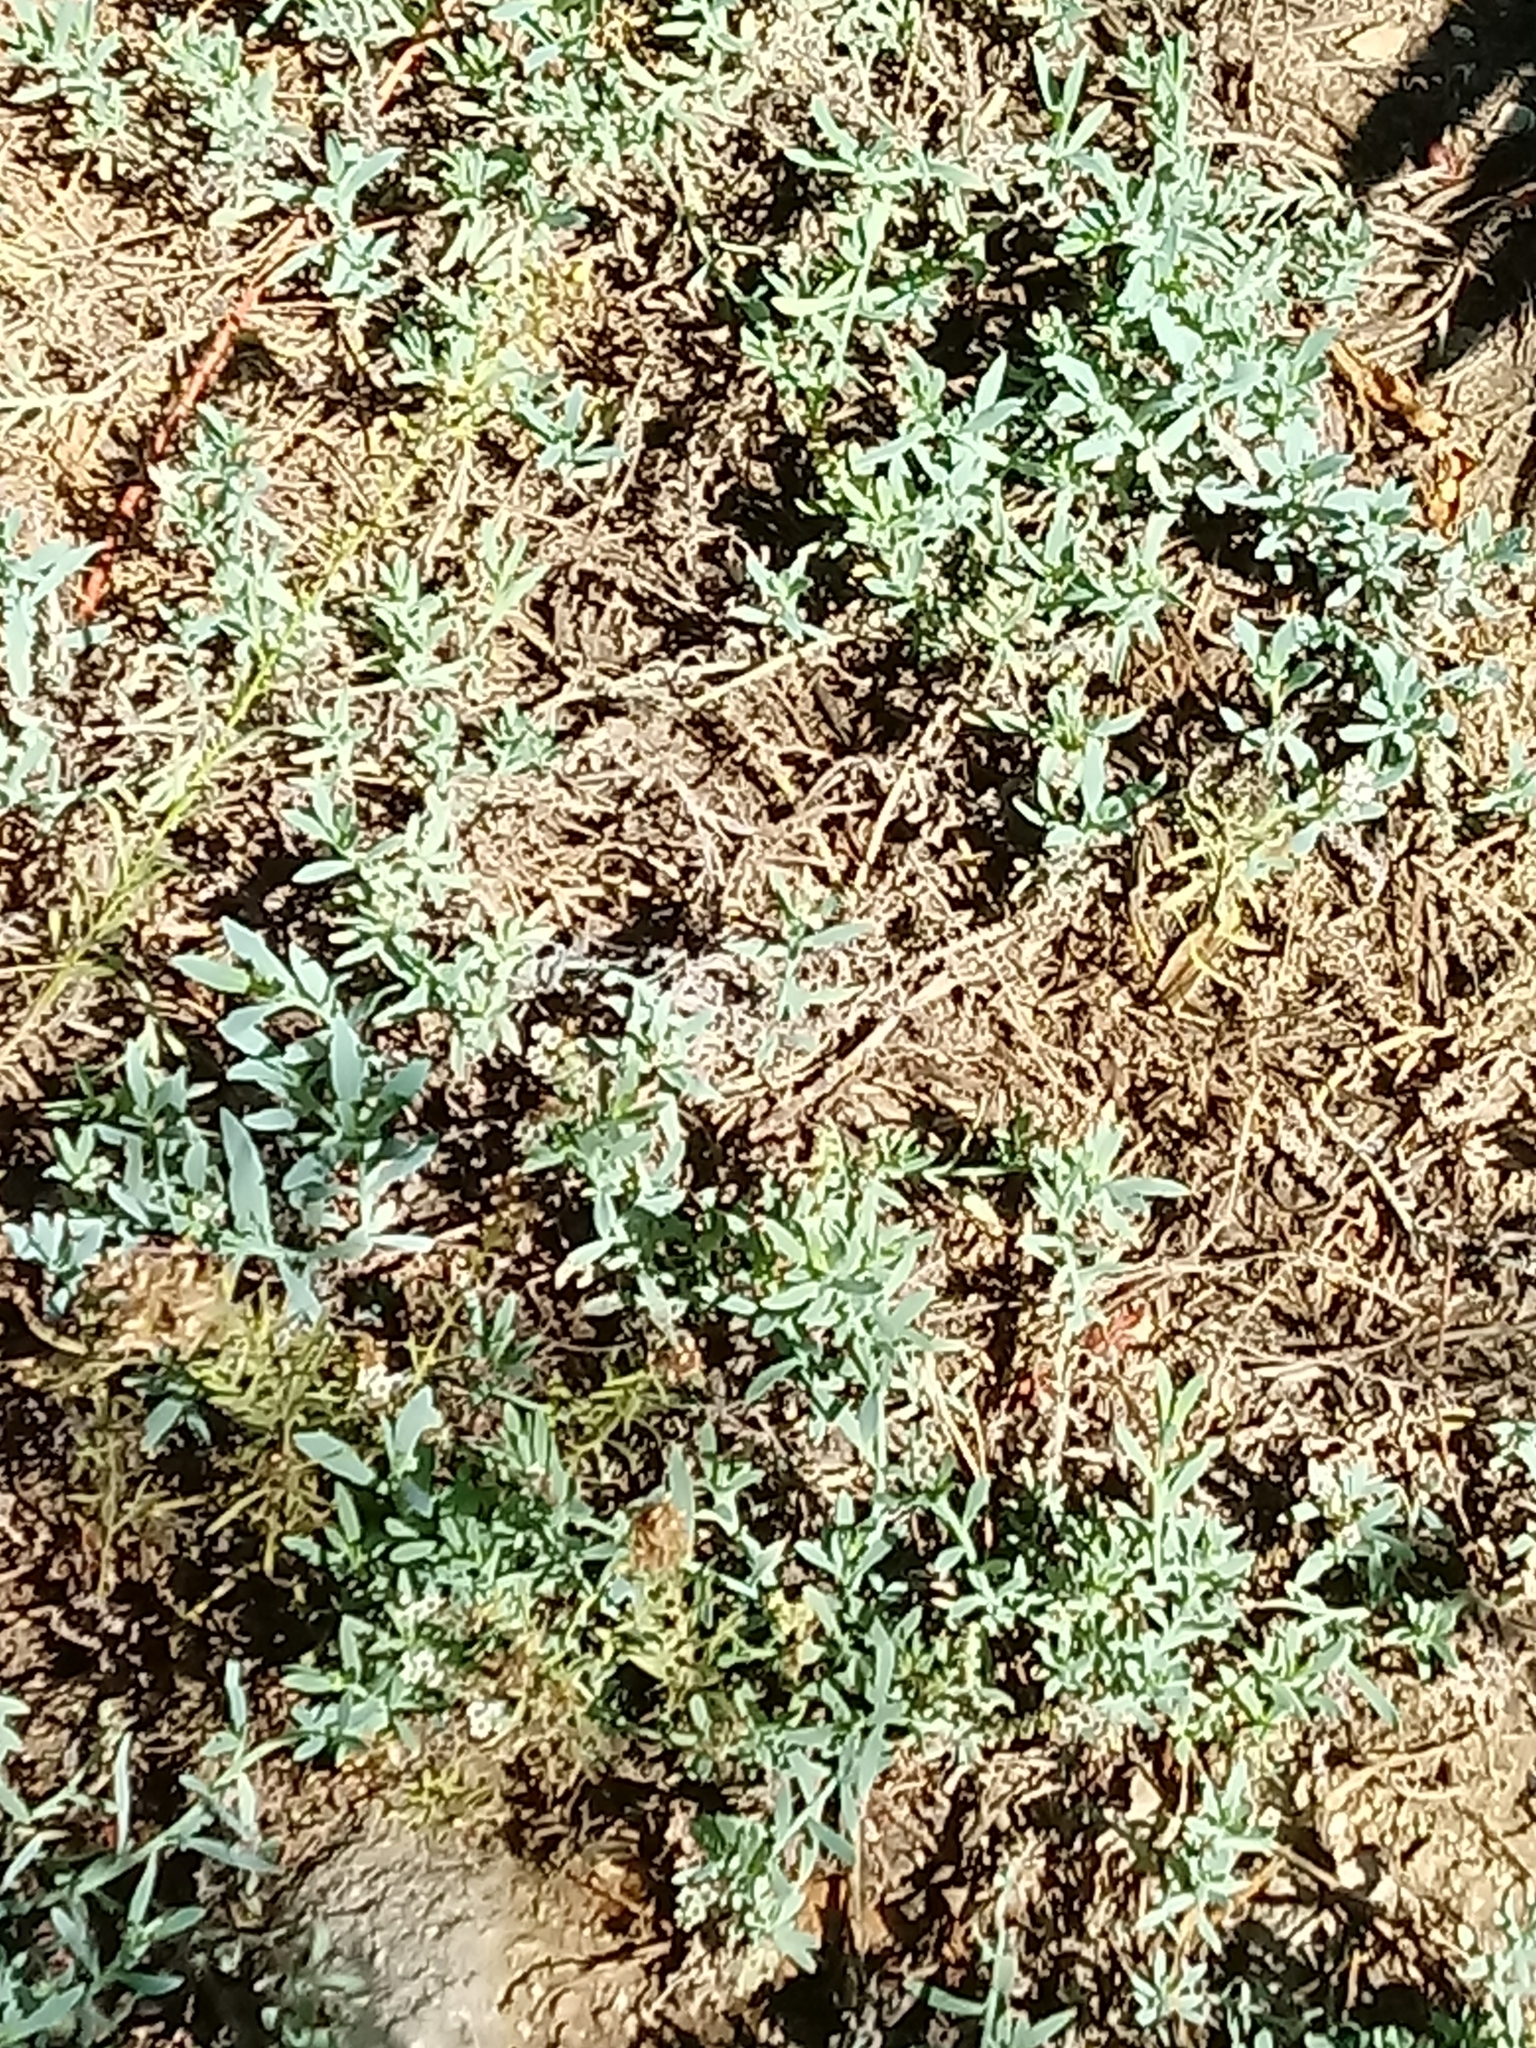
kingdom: Plantae
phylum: Tracheophyta
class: Magnoliopsida
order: Boraginales
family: Heliotropiaceae
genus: Heliotropium
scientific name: Heliotropium curassavicum
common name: Seaside heliotrope
